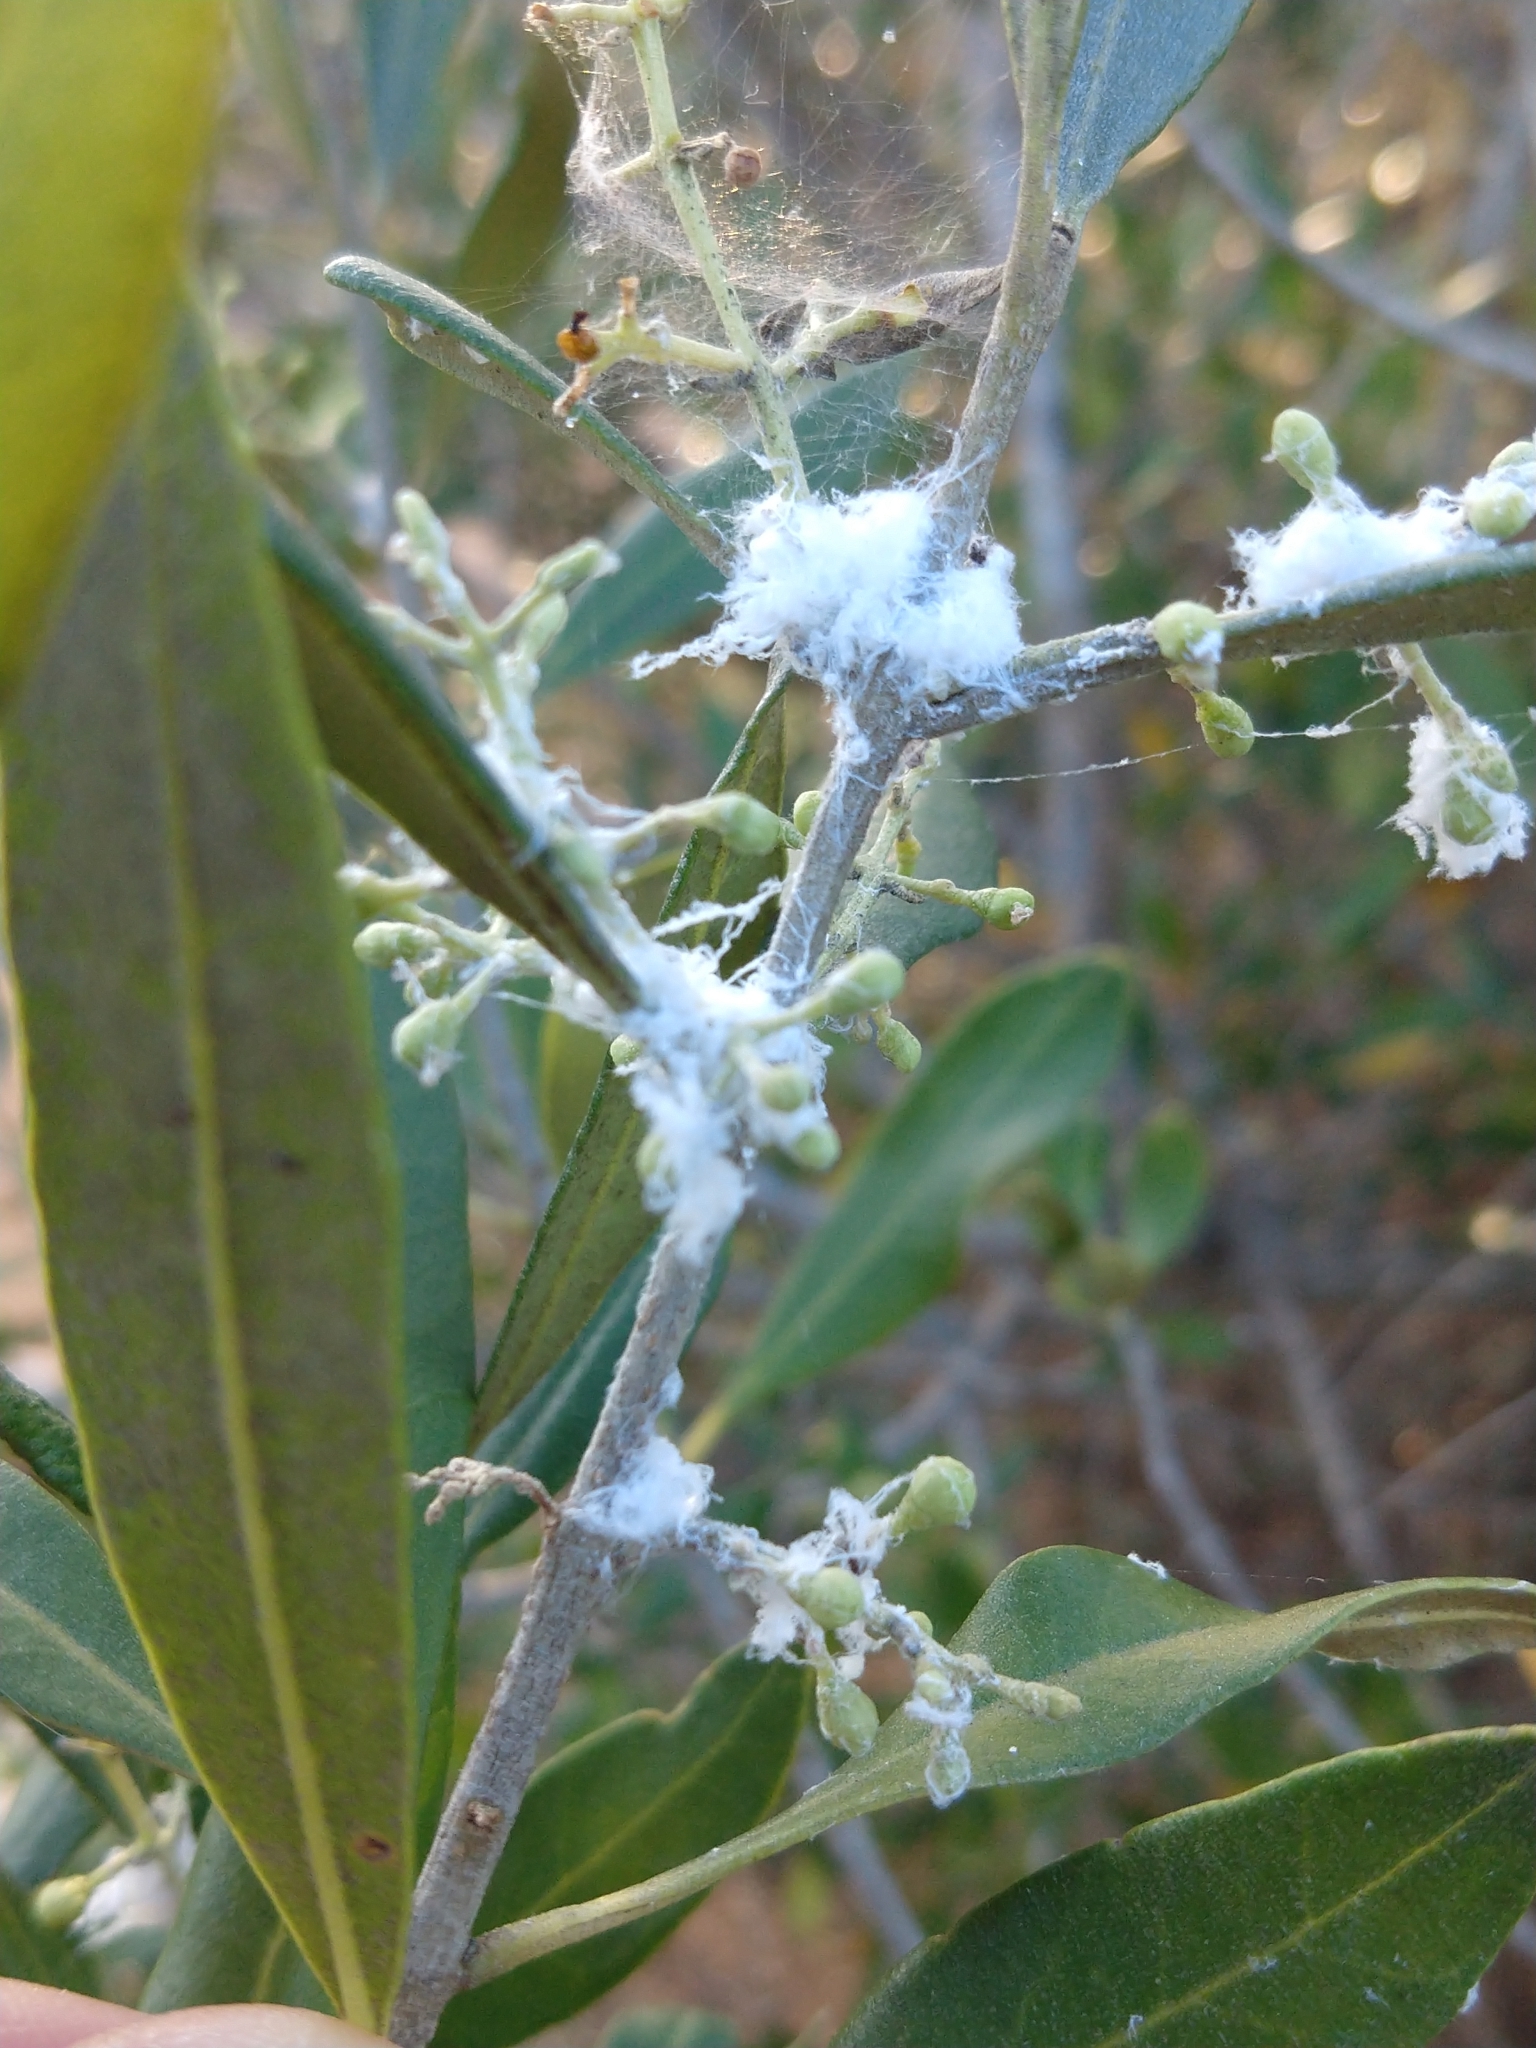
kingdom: Animalia
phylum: Arthropoda
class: Insecta
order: Hemiptera
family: Liviidae
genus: Euphyllura
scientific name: Euphyllura olivina
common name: Olive psyllid
